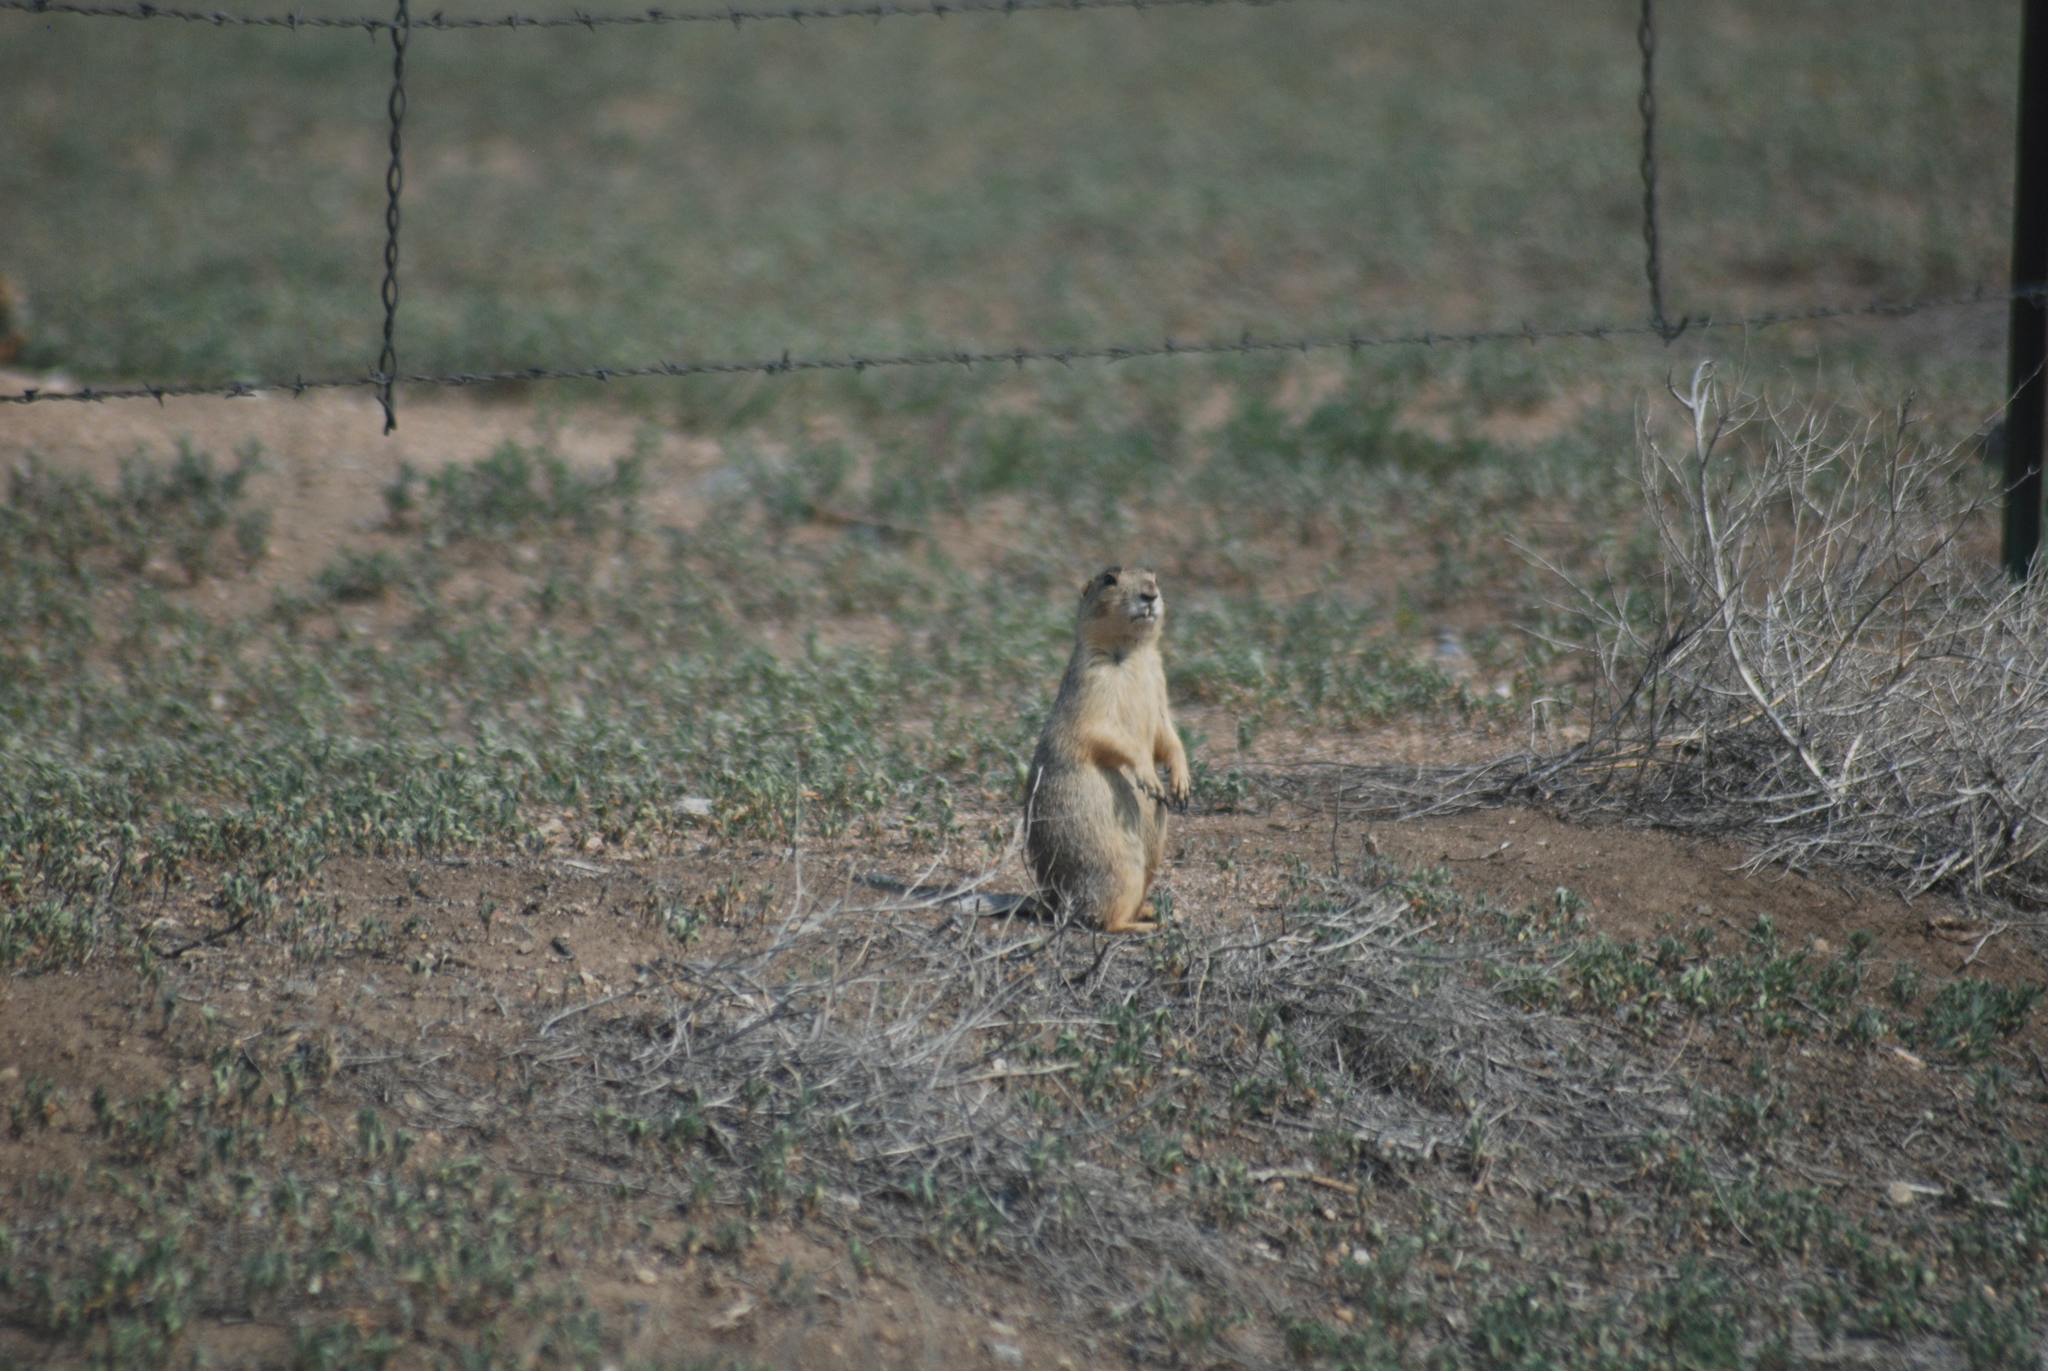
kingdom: Animalia
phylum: Chordata
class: Mammalia
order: Rodentia
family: Sciuridae
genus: Cynomys
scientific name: Cynomys gunnisoni
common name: Gunnison's prairie dog
